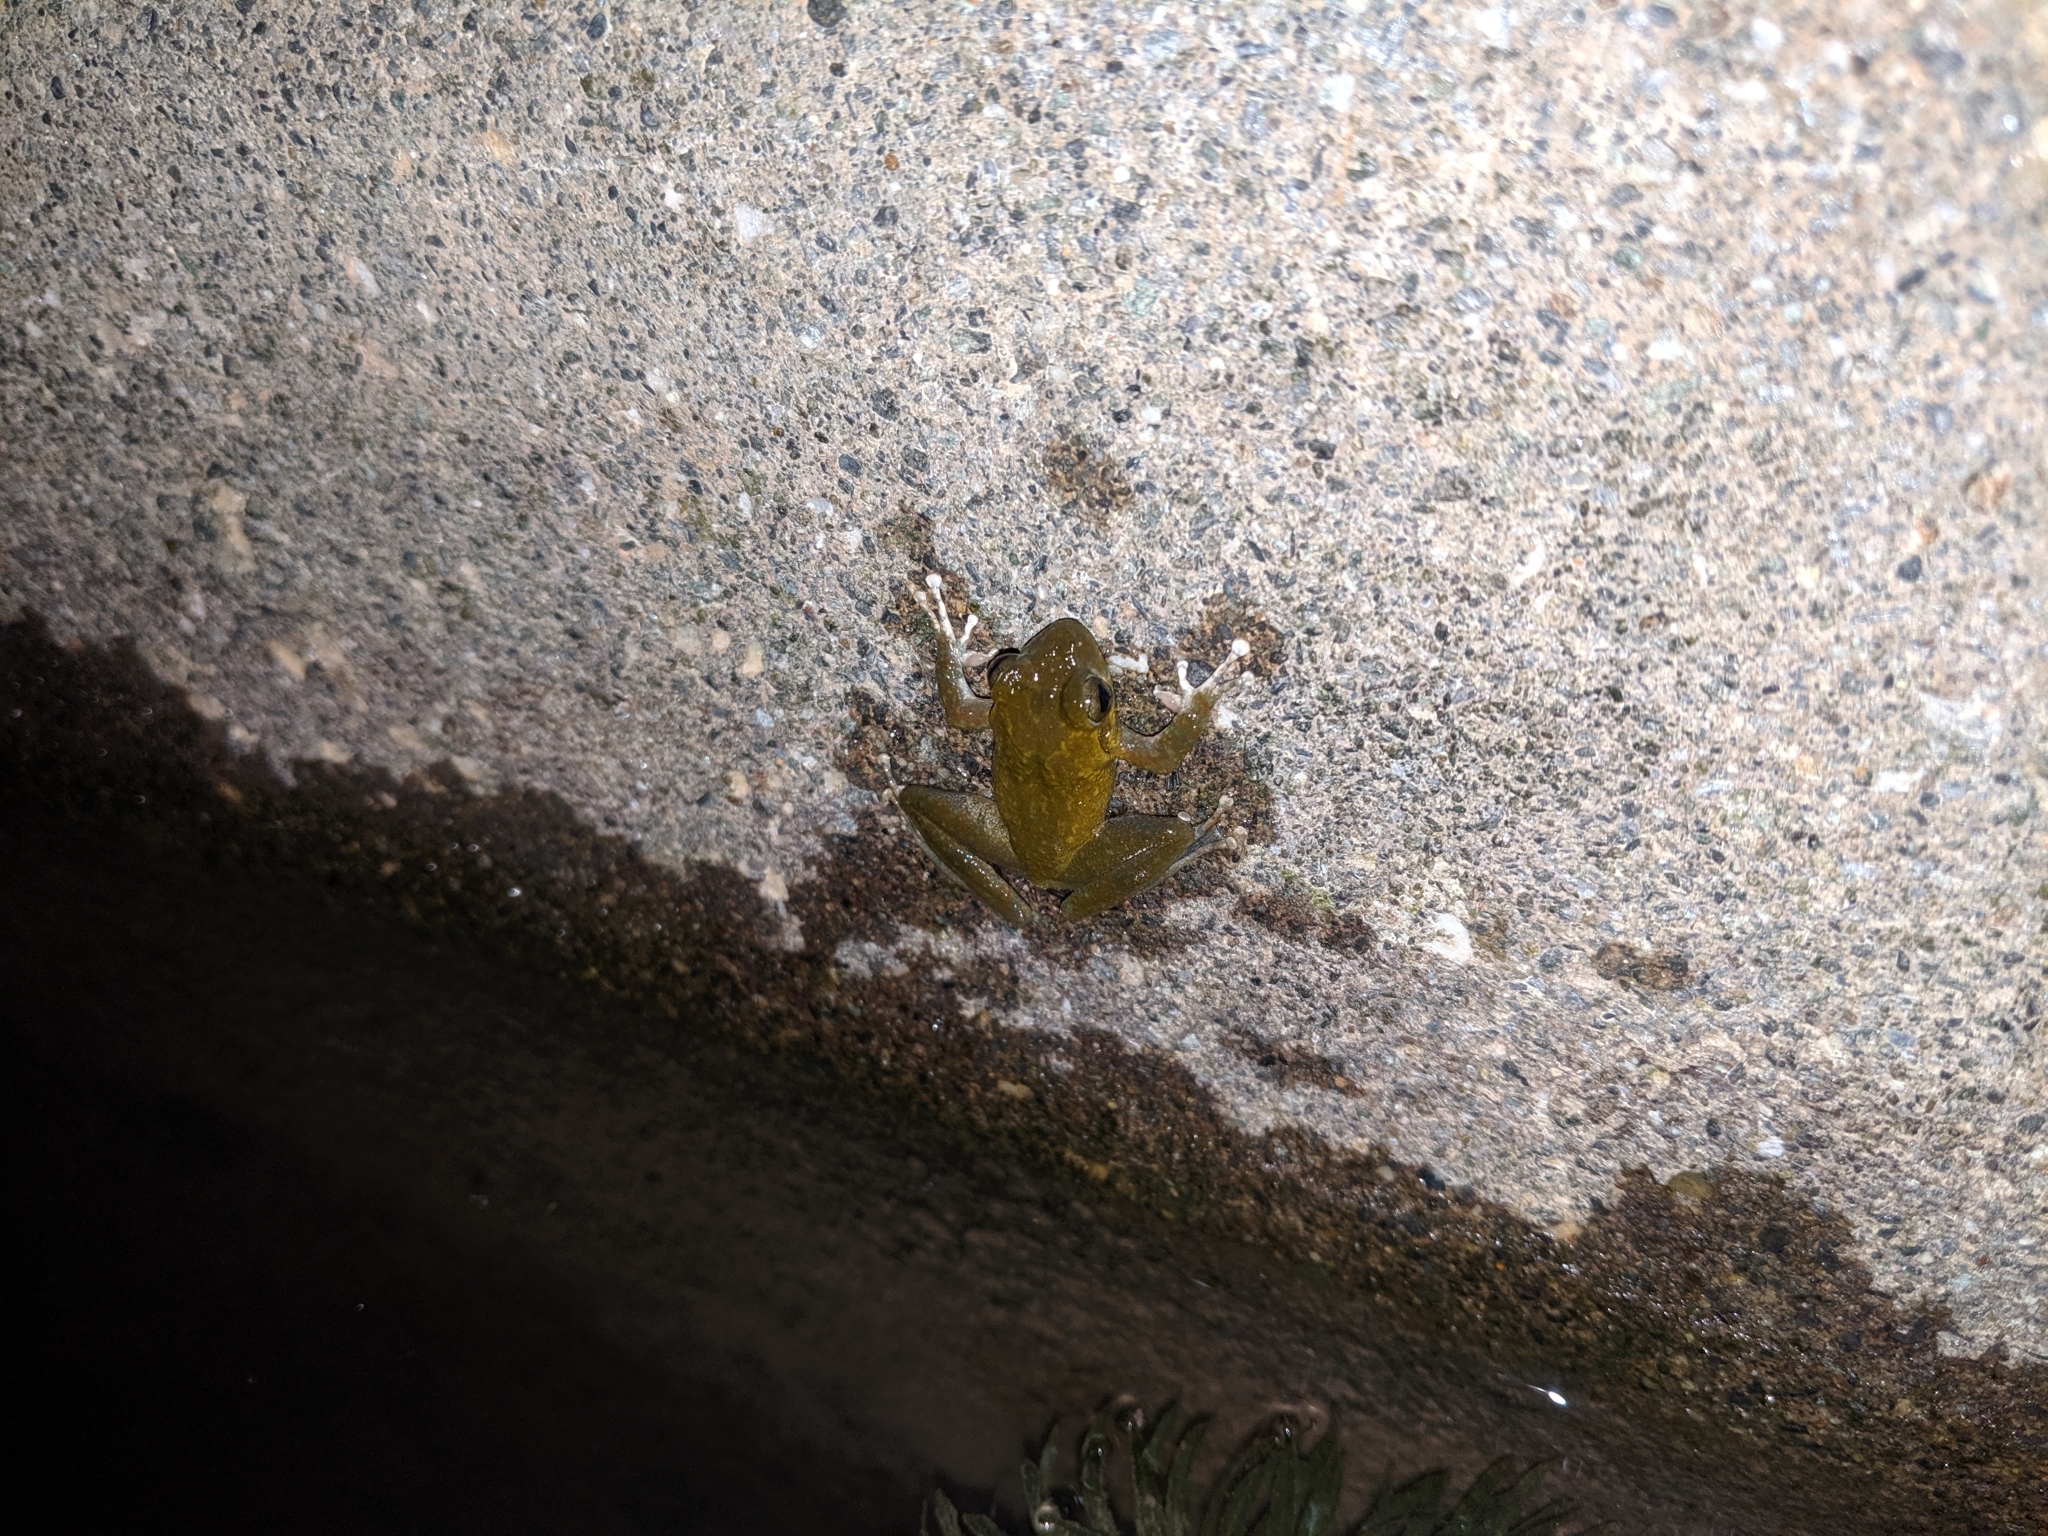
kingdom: Animalia
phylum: Chordata
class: Amphibia
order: Anura
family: Rhacophoridae
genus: Buergeria
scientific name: Buergeria otai
